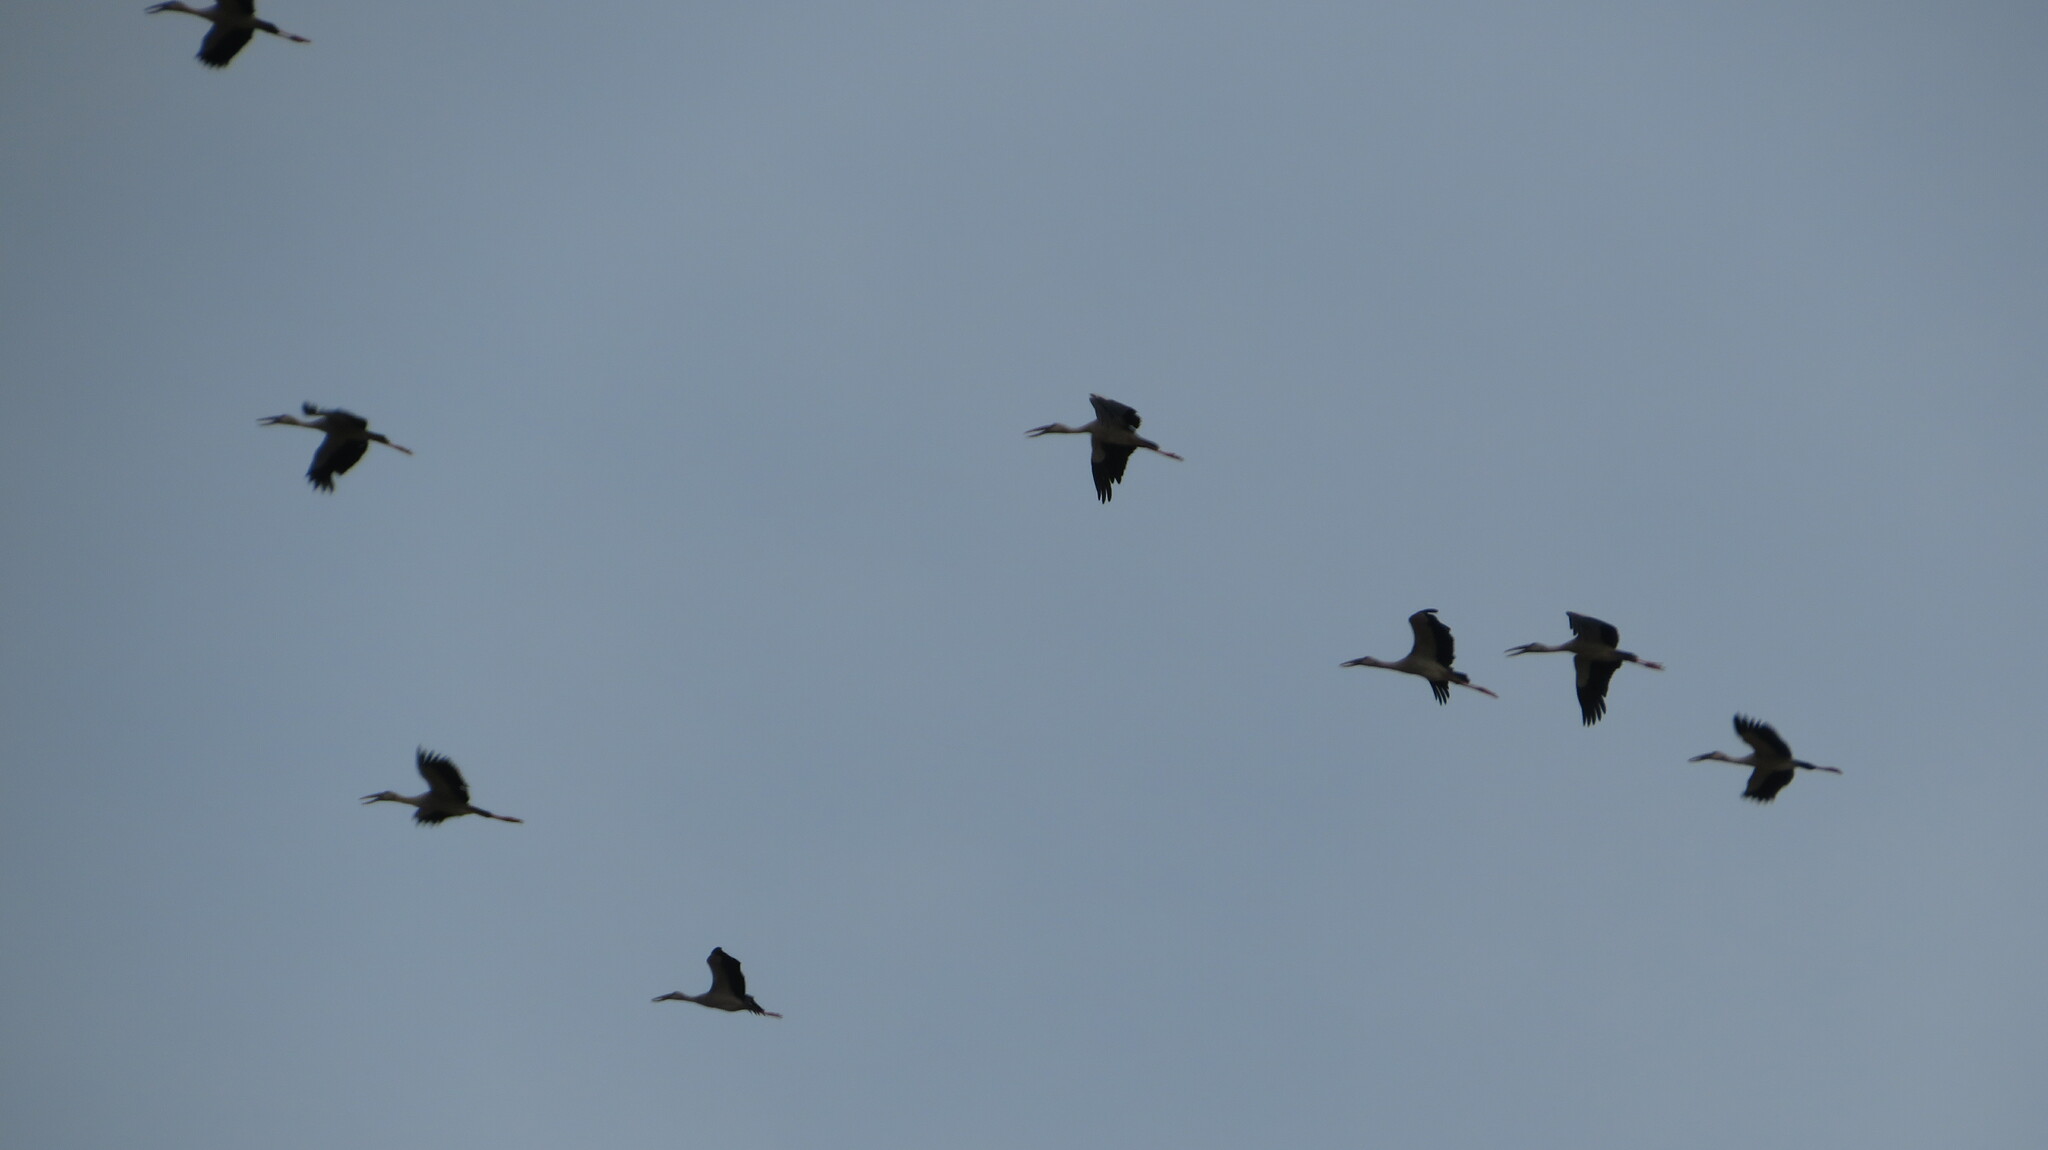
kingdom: Animalia
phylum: Chordata
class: Aves
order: Ciconiiformes
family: Ciconiidae
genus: Anastomus
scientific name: Anastomus oscitans
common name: Asian openbill
